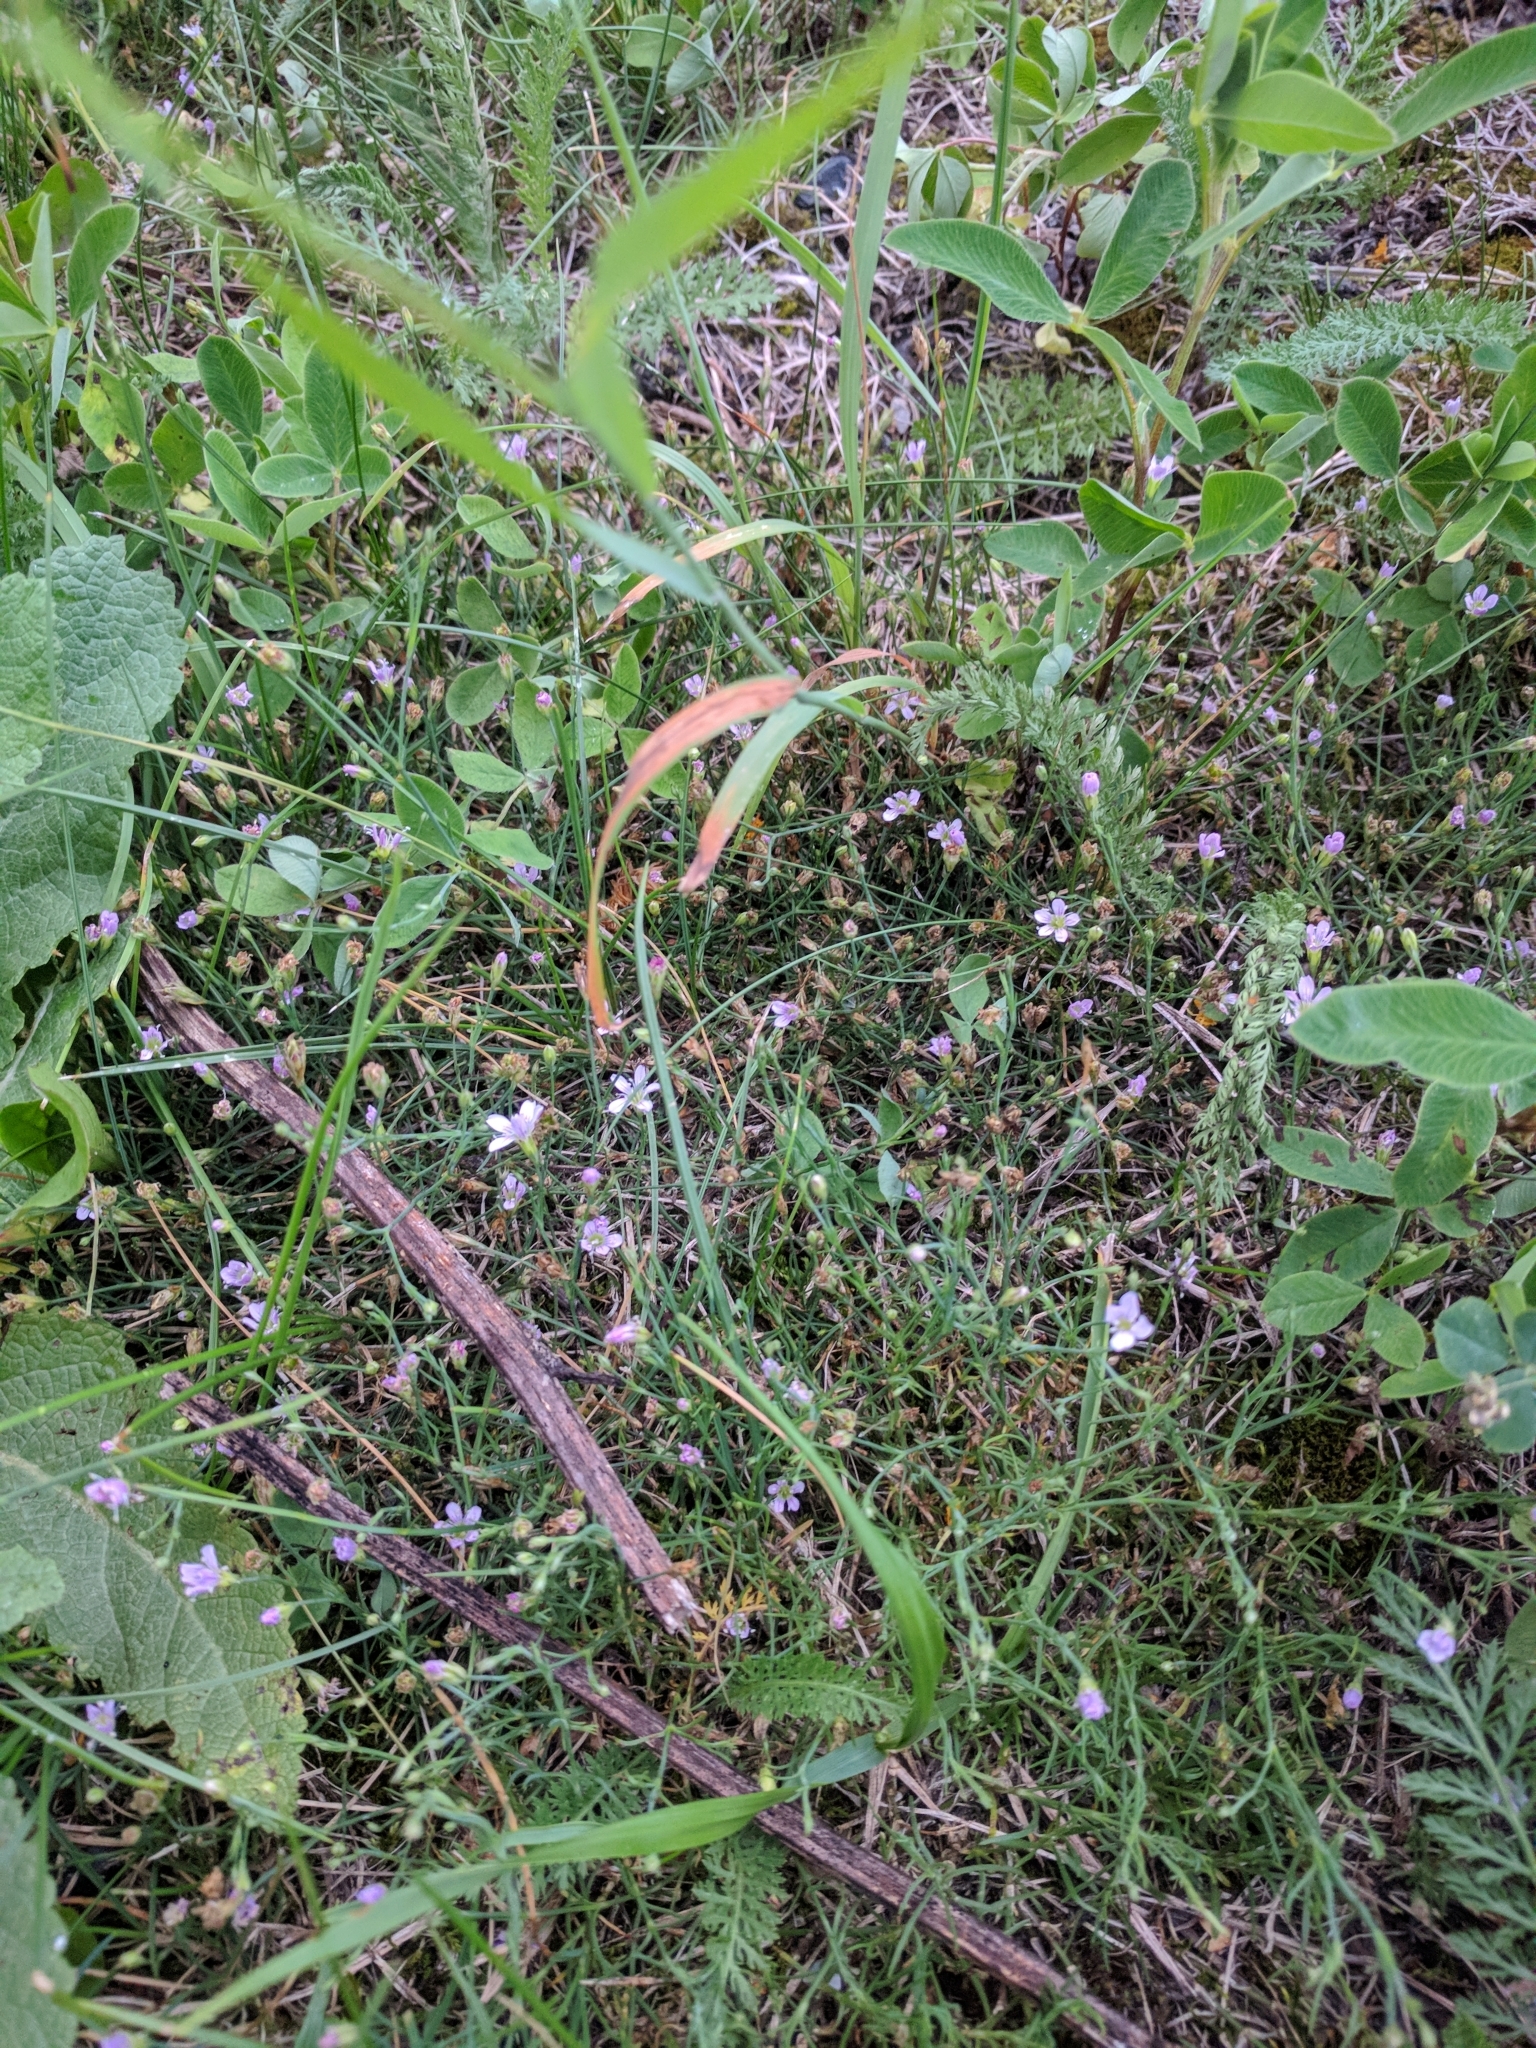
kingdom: Plantae
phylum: Tracheophyta
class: Magnoliopsida
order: Caryophyllales
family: Caryophyllaceae
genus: Petrorhagia
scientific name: Petrorhagia saxifraga
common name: Tunicflower
